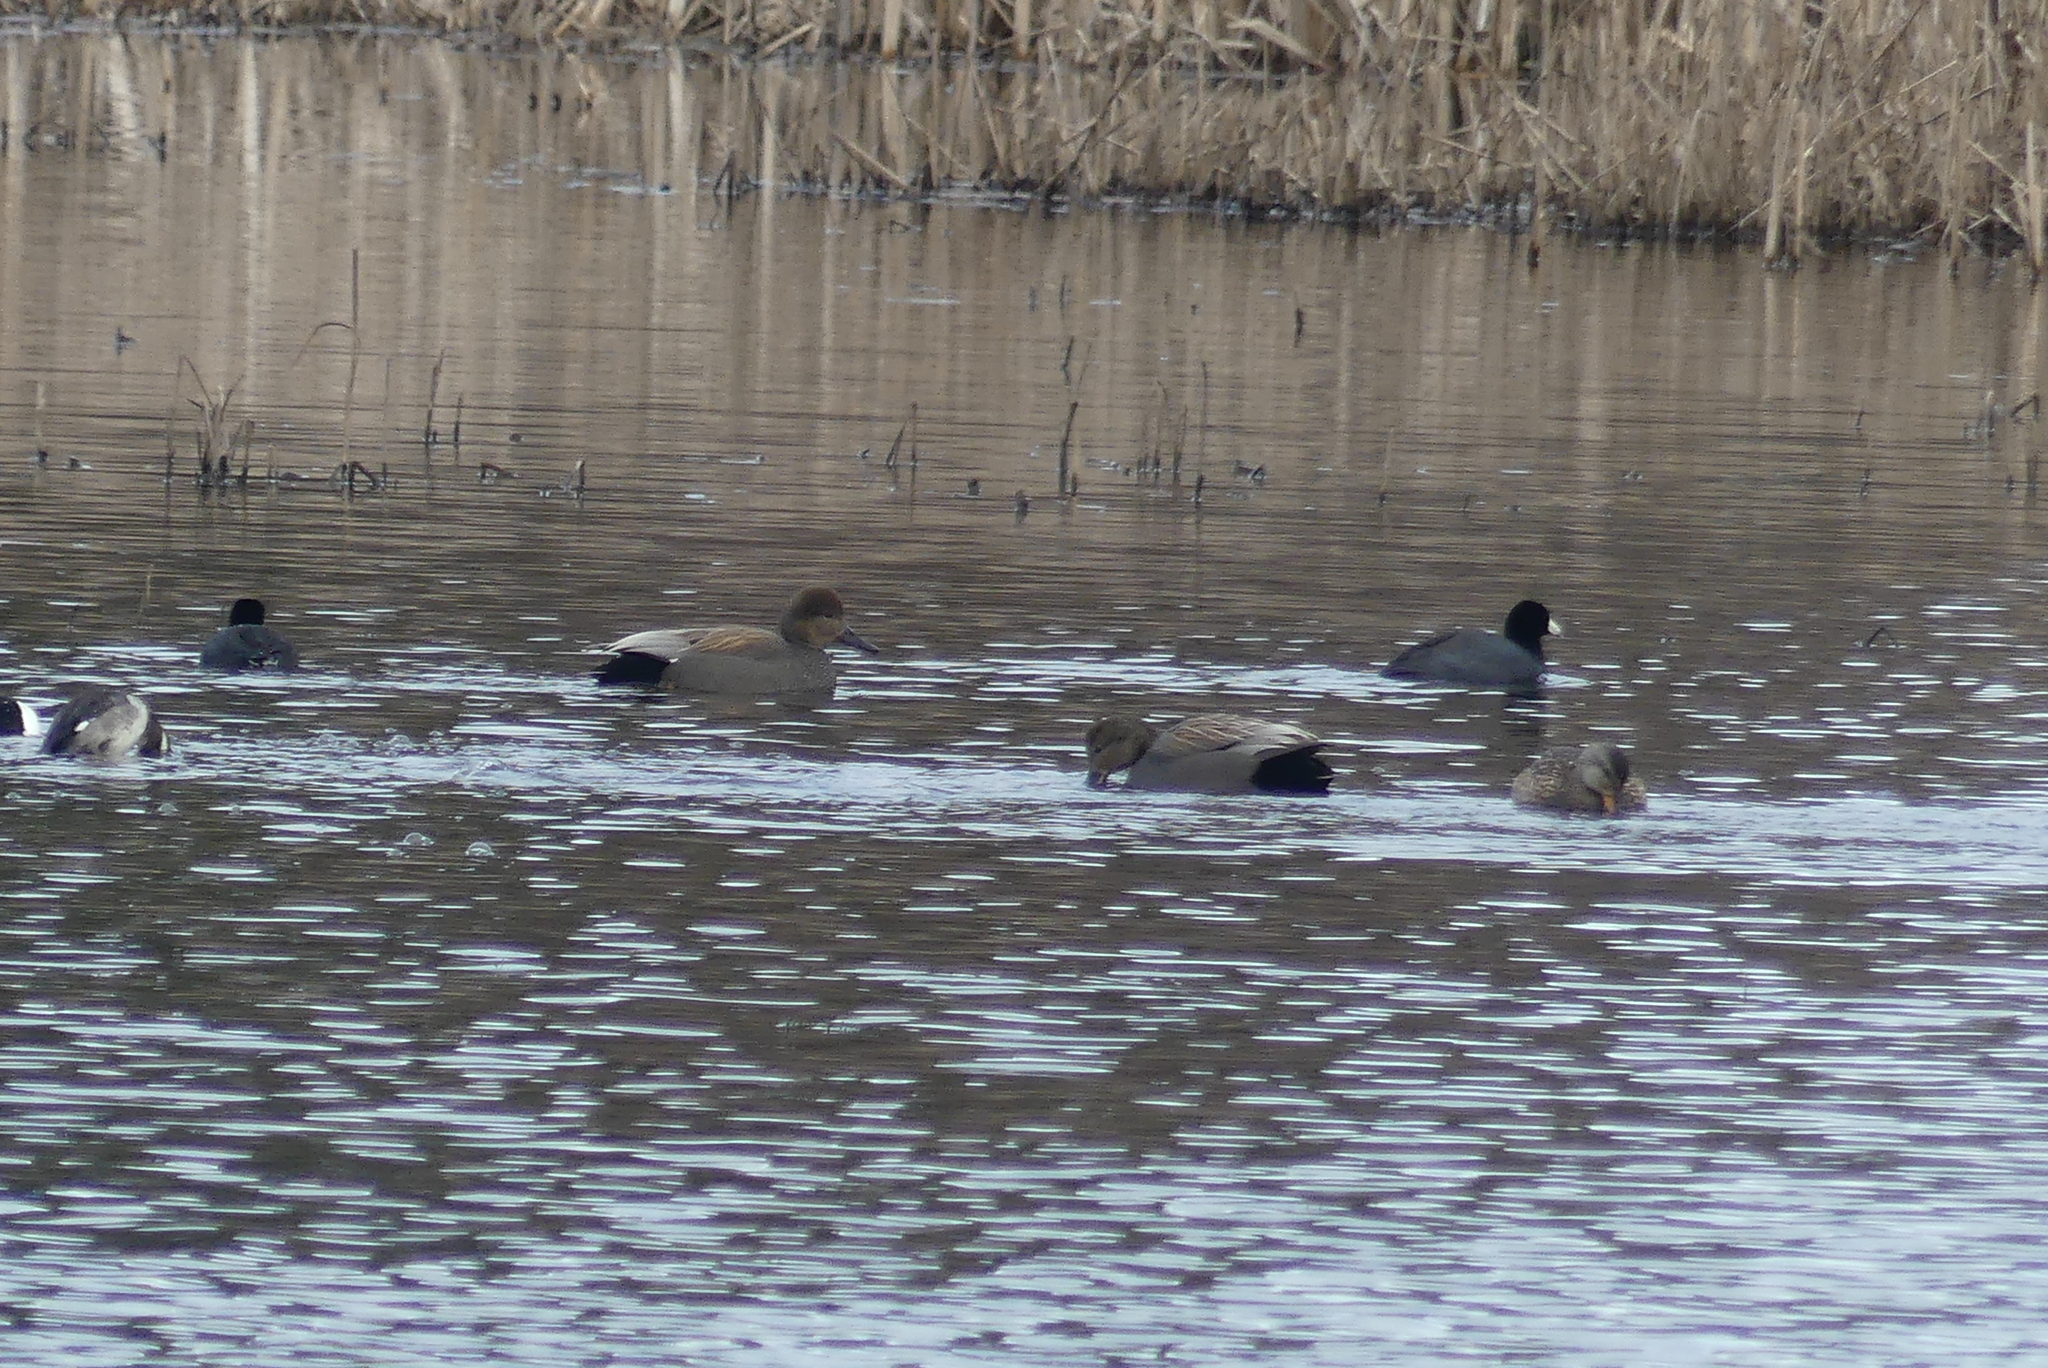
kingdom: Animalia
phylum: Chordata
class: Aves
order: Anseriformes
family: Anatidae
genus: Mareca
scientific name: Mareca strepera
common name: Gadwall
